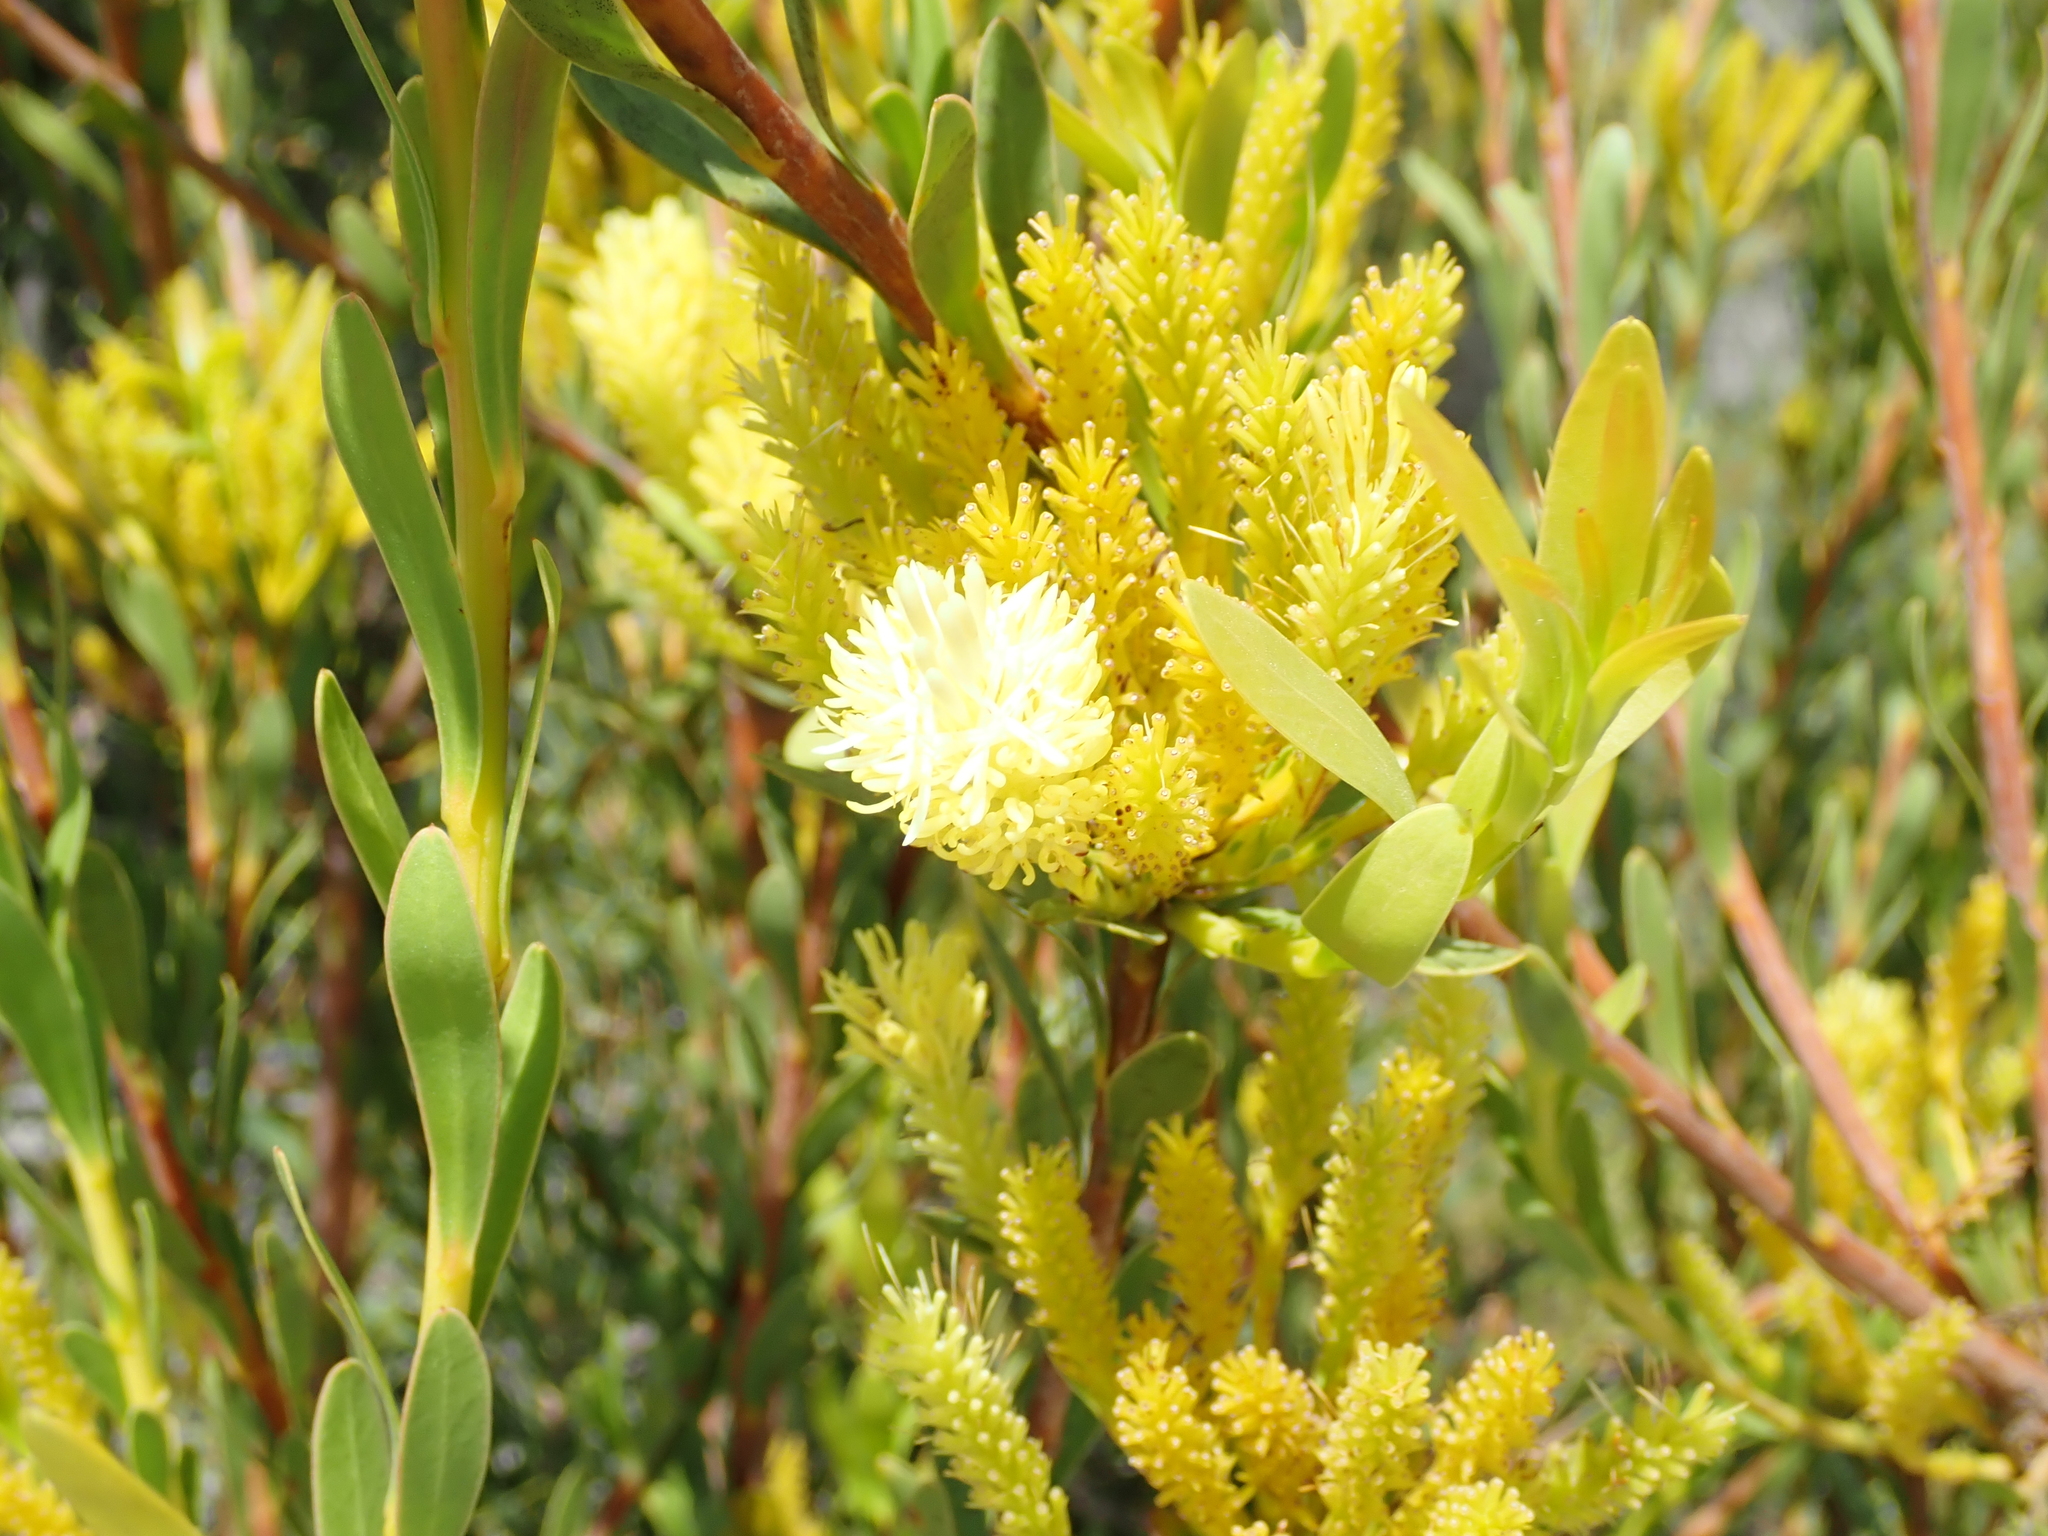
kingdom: Plantae
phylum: Tracheophyta
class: Magnoliopsida
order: Proteales
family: Proteaceae
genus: Aulax
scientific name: Aulax umbellata
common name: Broad-leaf featherbush
